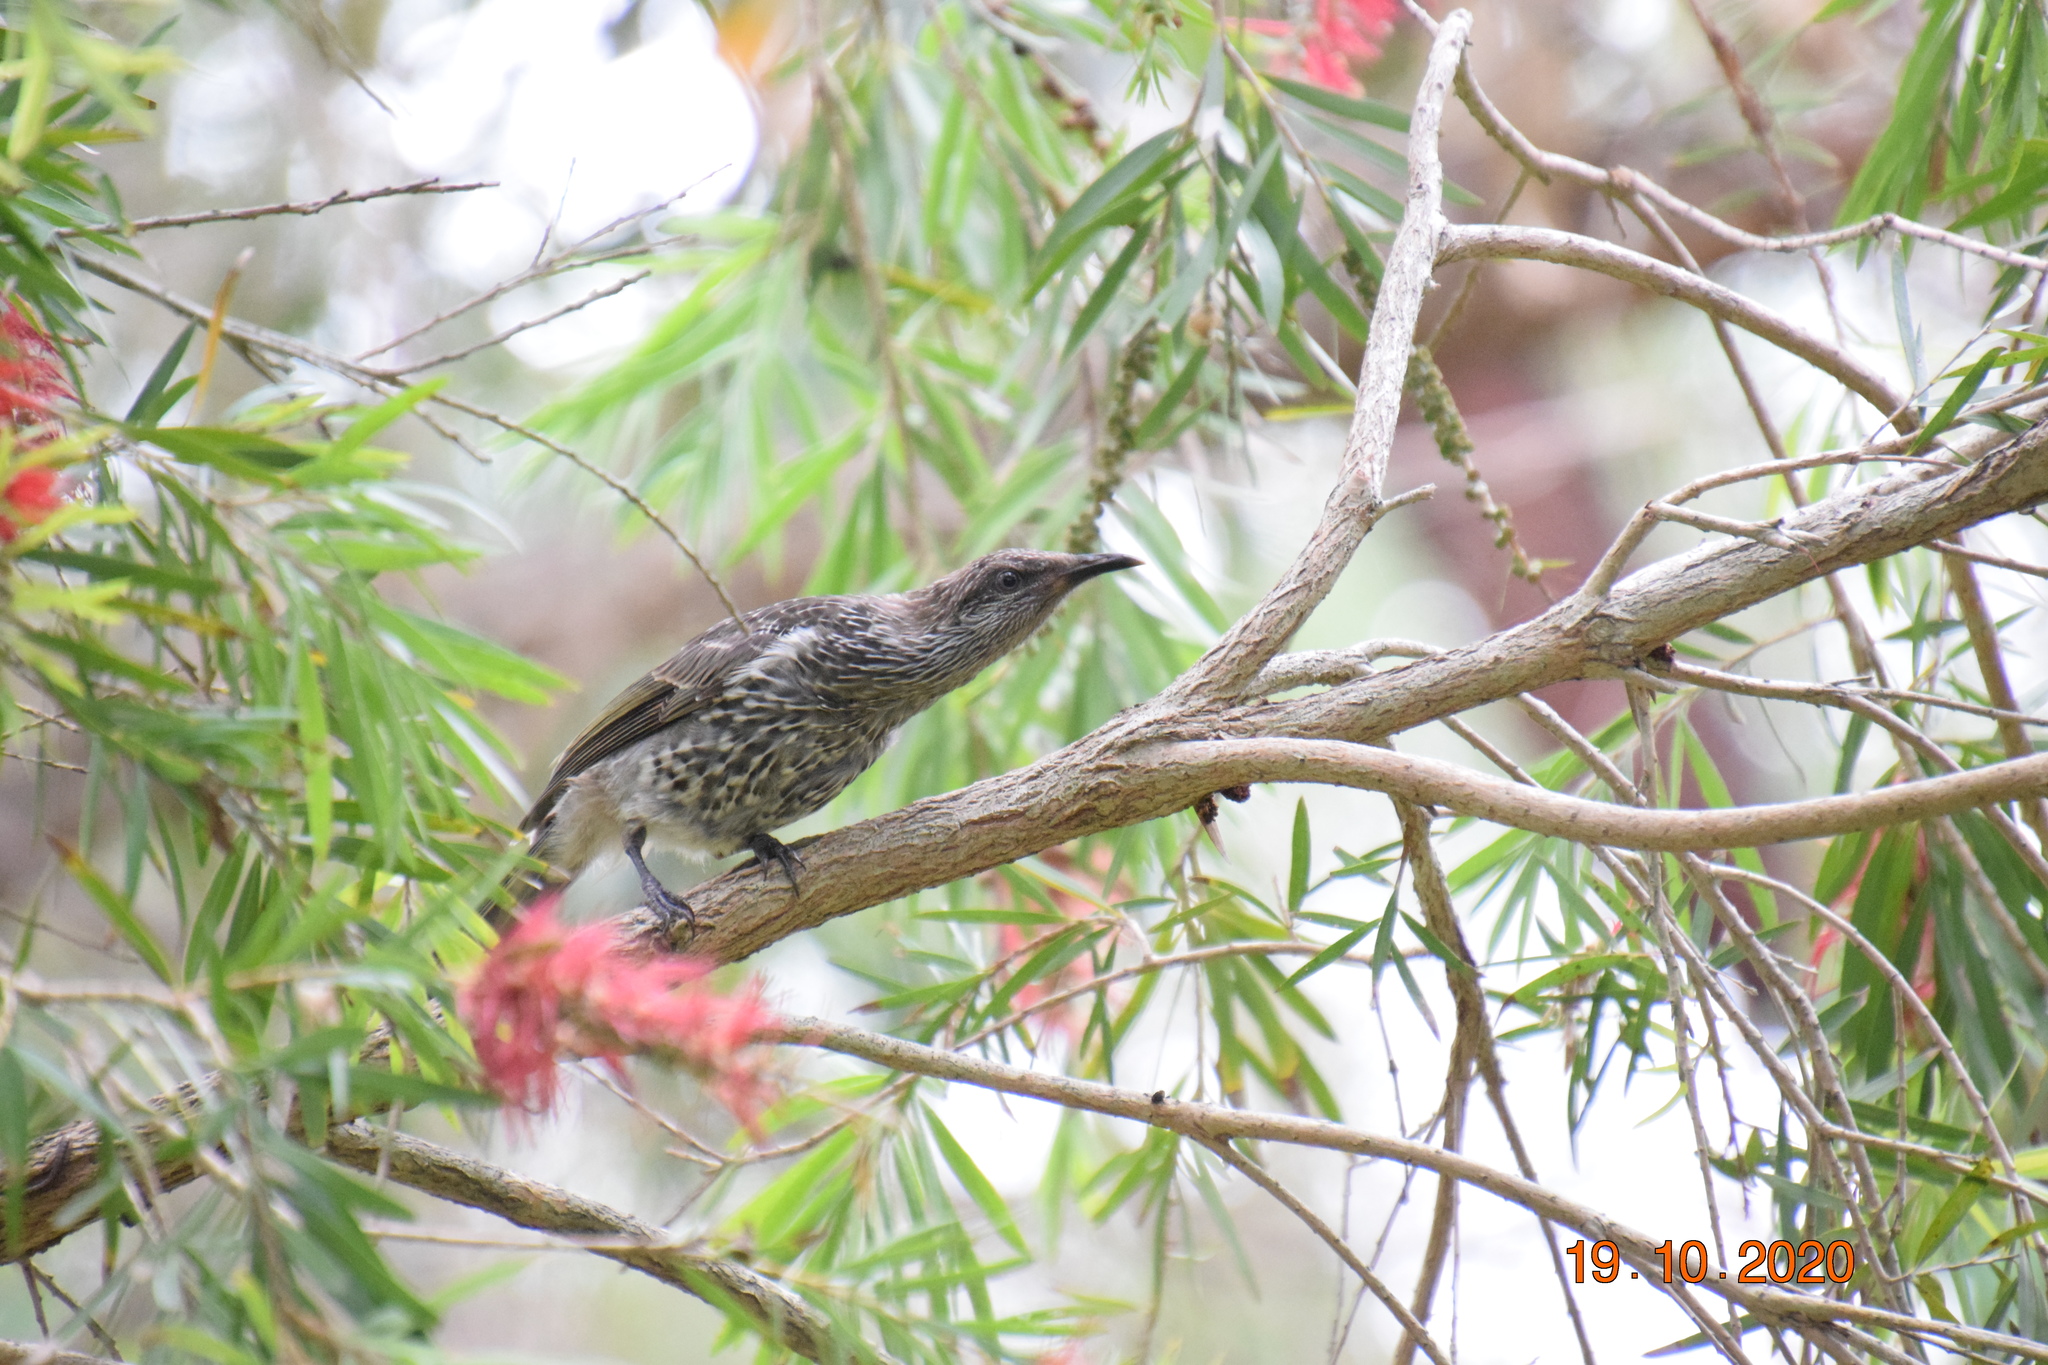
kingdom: Animalia
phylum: Chordata
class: Aves
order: Passeriformes
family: Meliphagidae
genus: Anthochaera
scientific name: Anthochaera chrysoptera
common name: Little wattlebird
